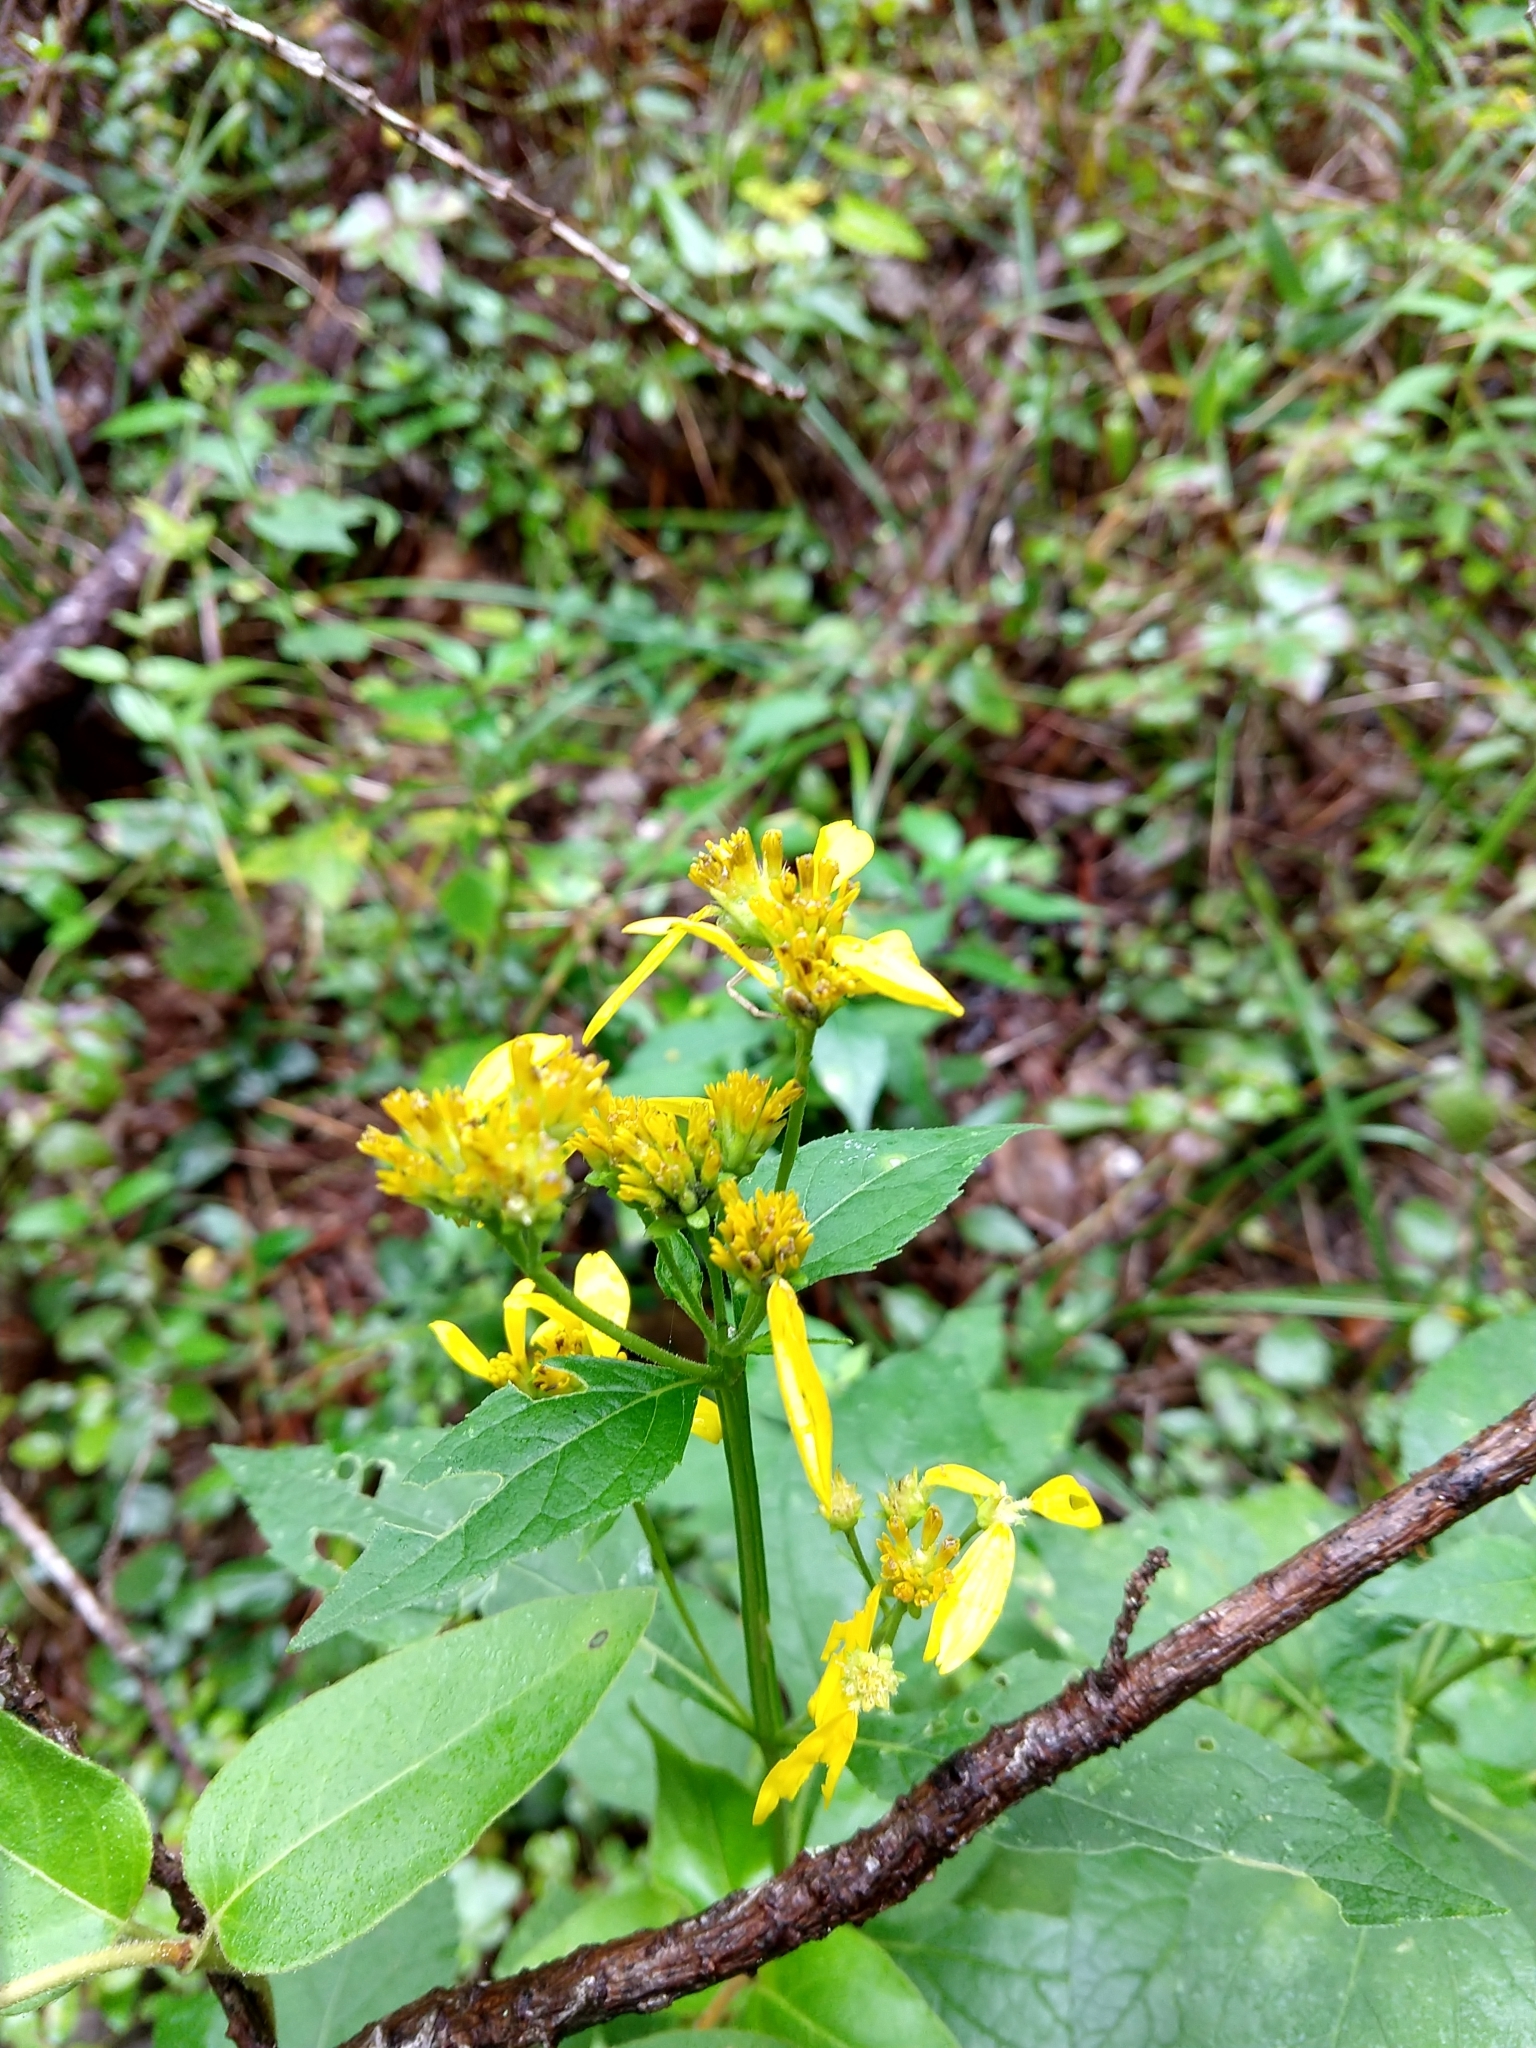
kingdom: Plantae
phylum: Tracheophyta
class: Magnoliopsida
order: Asterales
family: Asteraceae
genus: Verbesina
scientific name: Verbesina occidentalis
